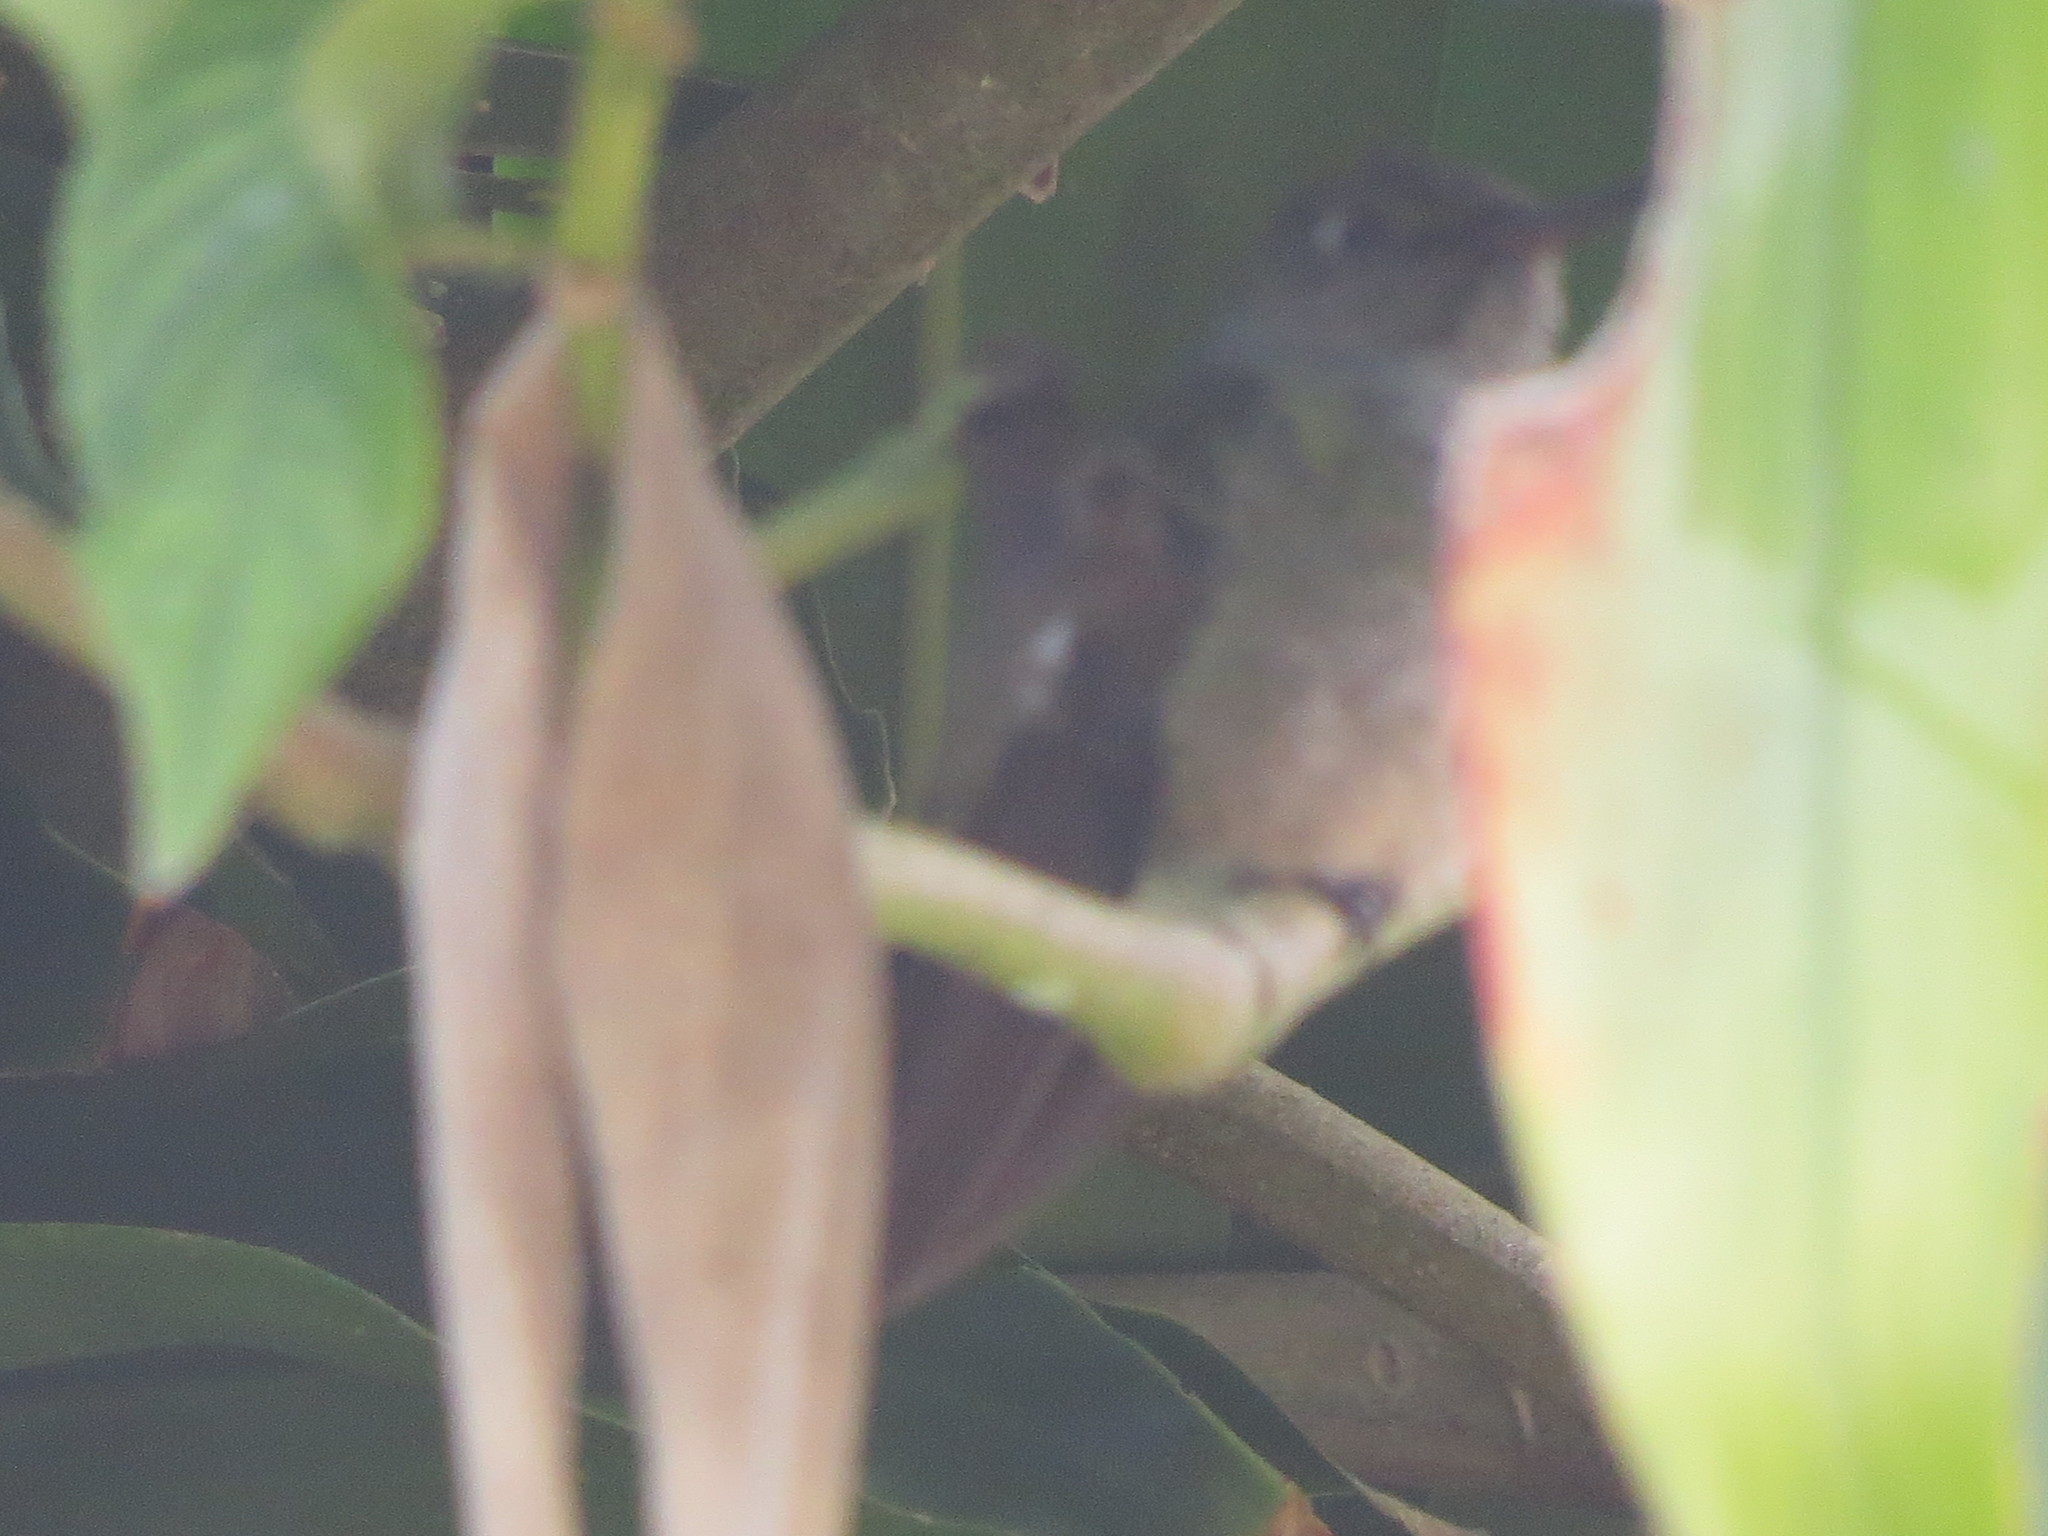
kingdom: Animalia
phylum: Chordata
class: Aves
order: Apodiformes
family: Trochilidae
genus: Phaeochroa
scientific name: Phaeochroa cuvierii
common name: Scaly-breasted hummingbird
